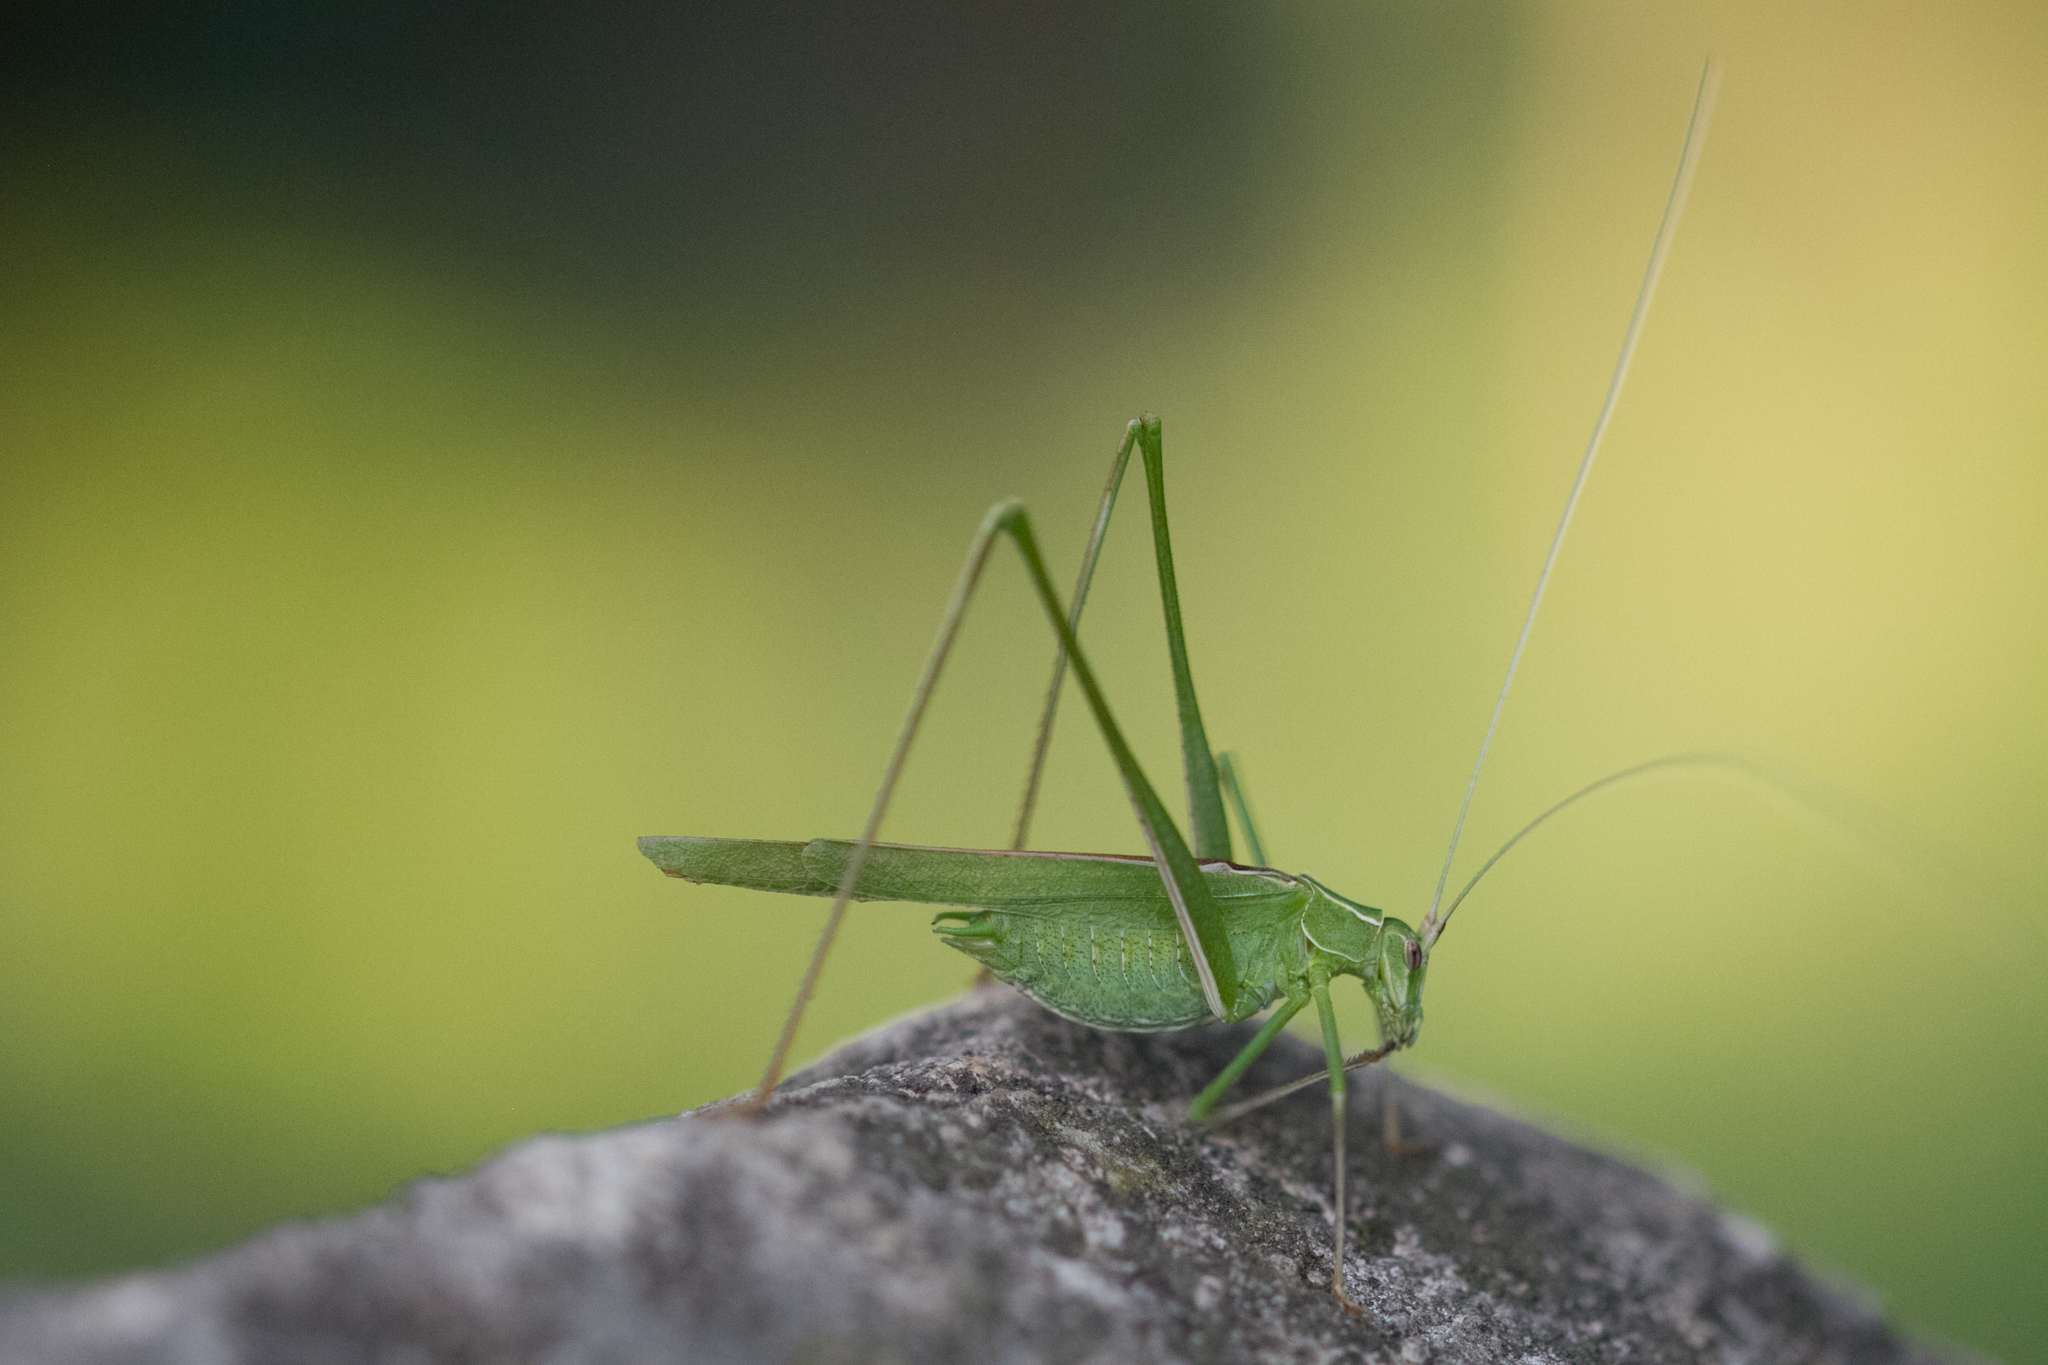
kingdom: Animalia
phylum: Arthropoda
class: Insecta
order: Orthoptera
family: Tettigoniidae
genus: Tylopsis
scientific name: Tylopsis lilifolia
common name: Lily bush-cricket
